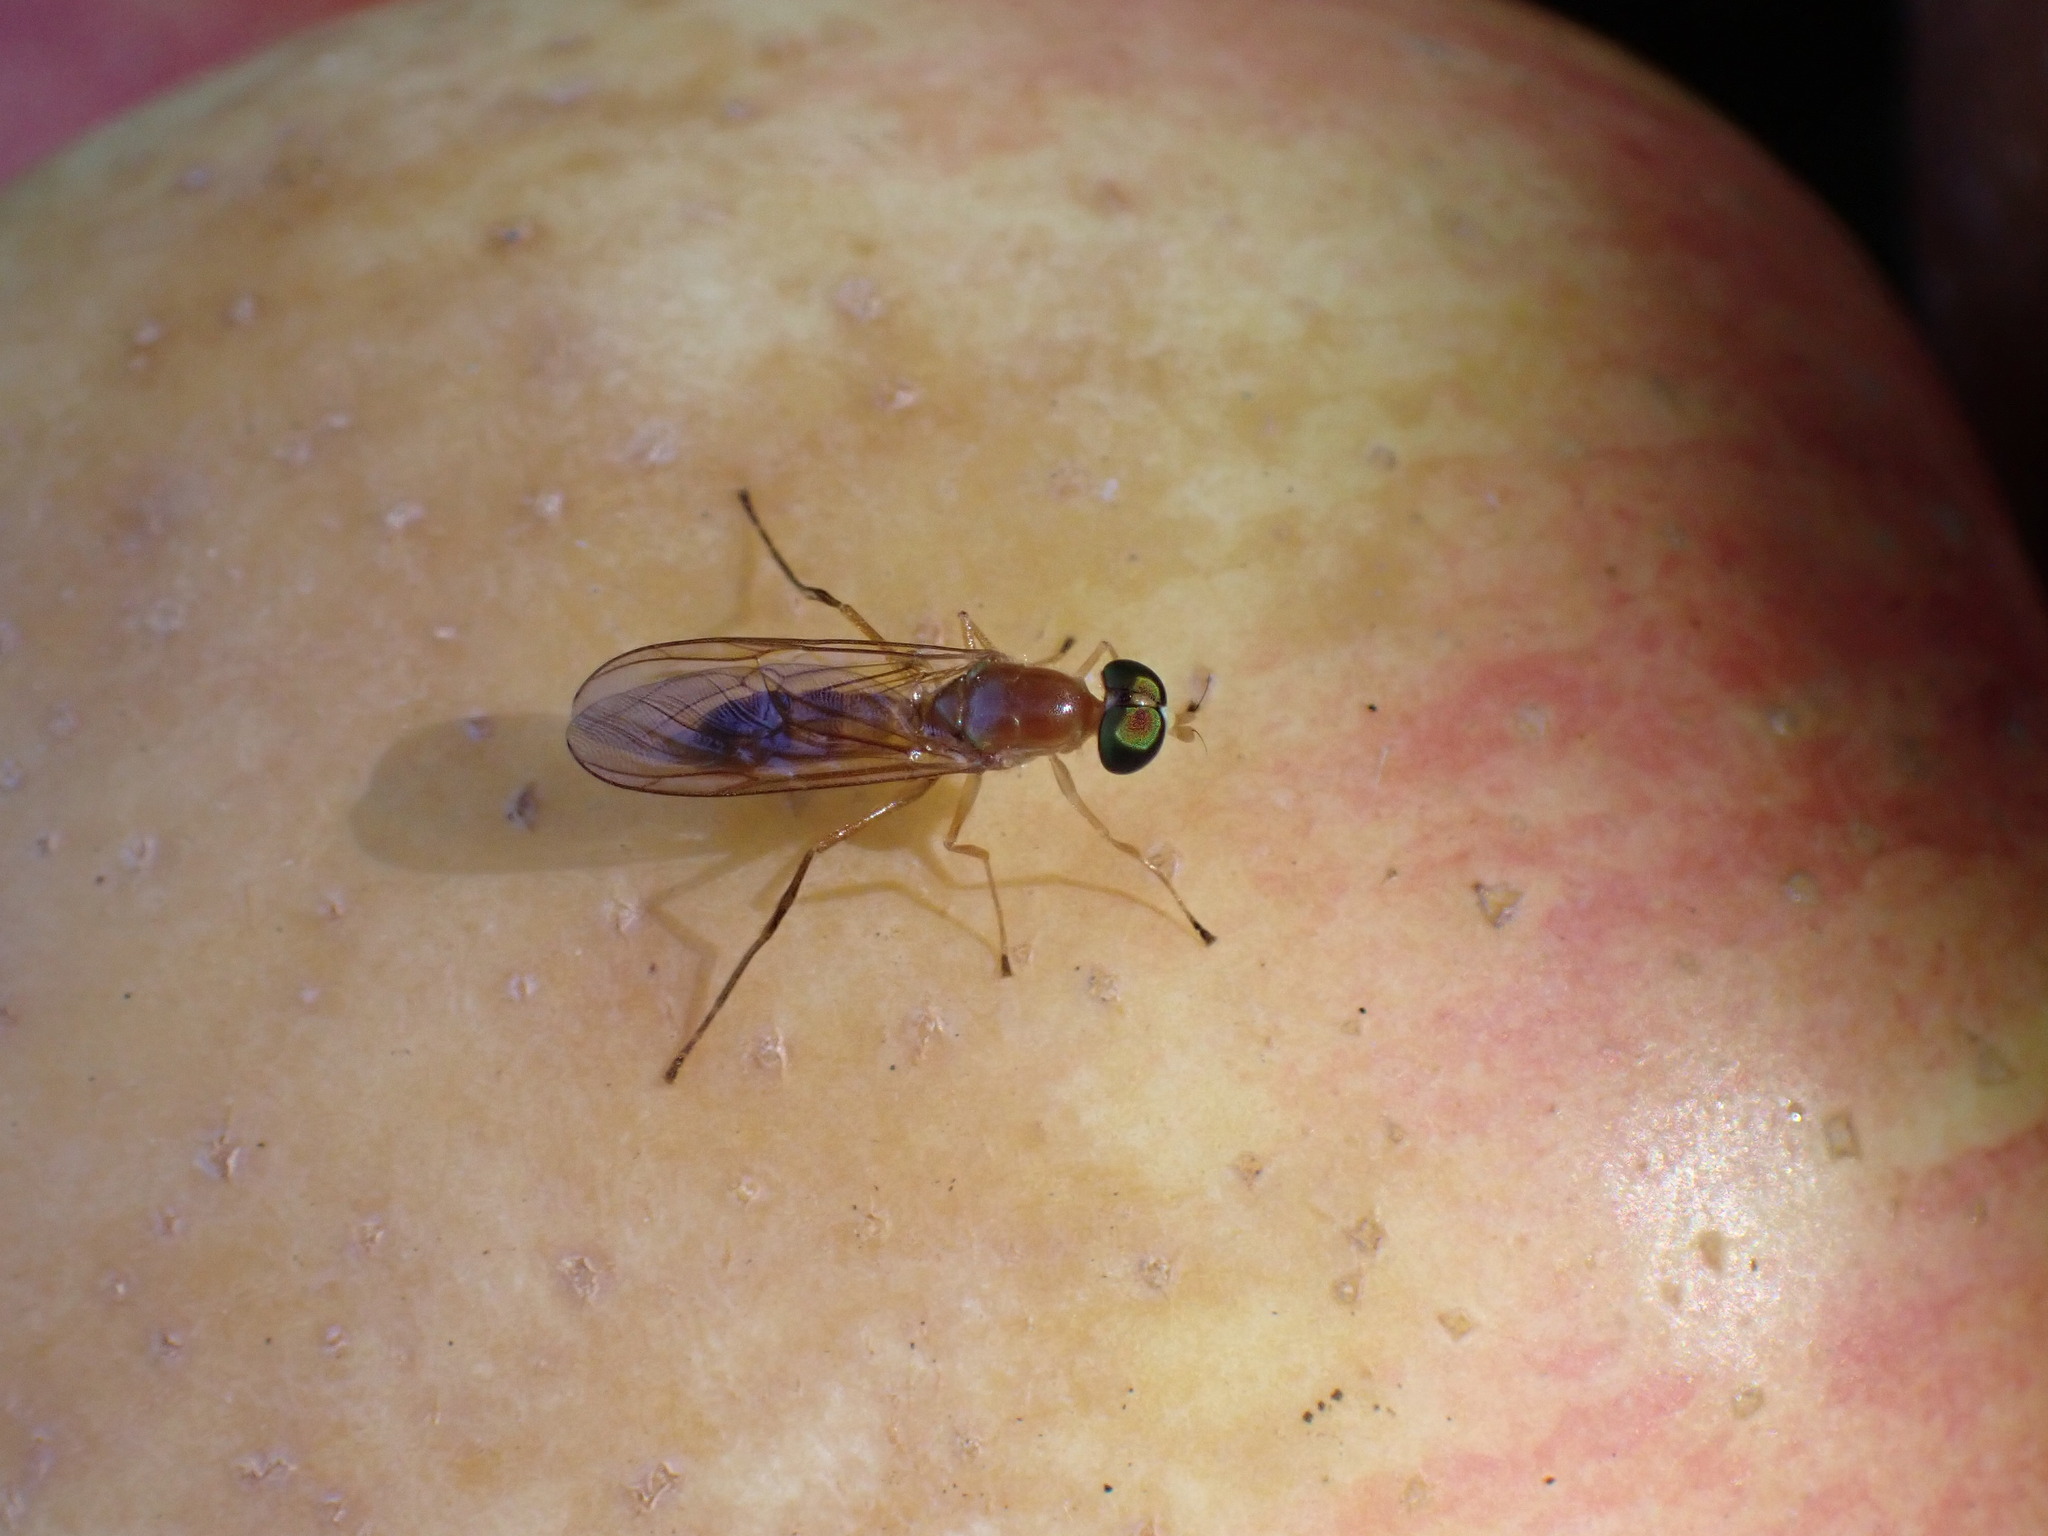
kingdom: Animalia
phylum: Arthropoda
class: Insecta
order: Diptera
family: Stratiomyidae
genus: Ptecticus
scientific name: Ptecticus trivittatus
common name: Compost fly
